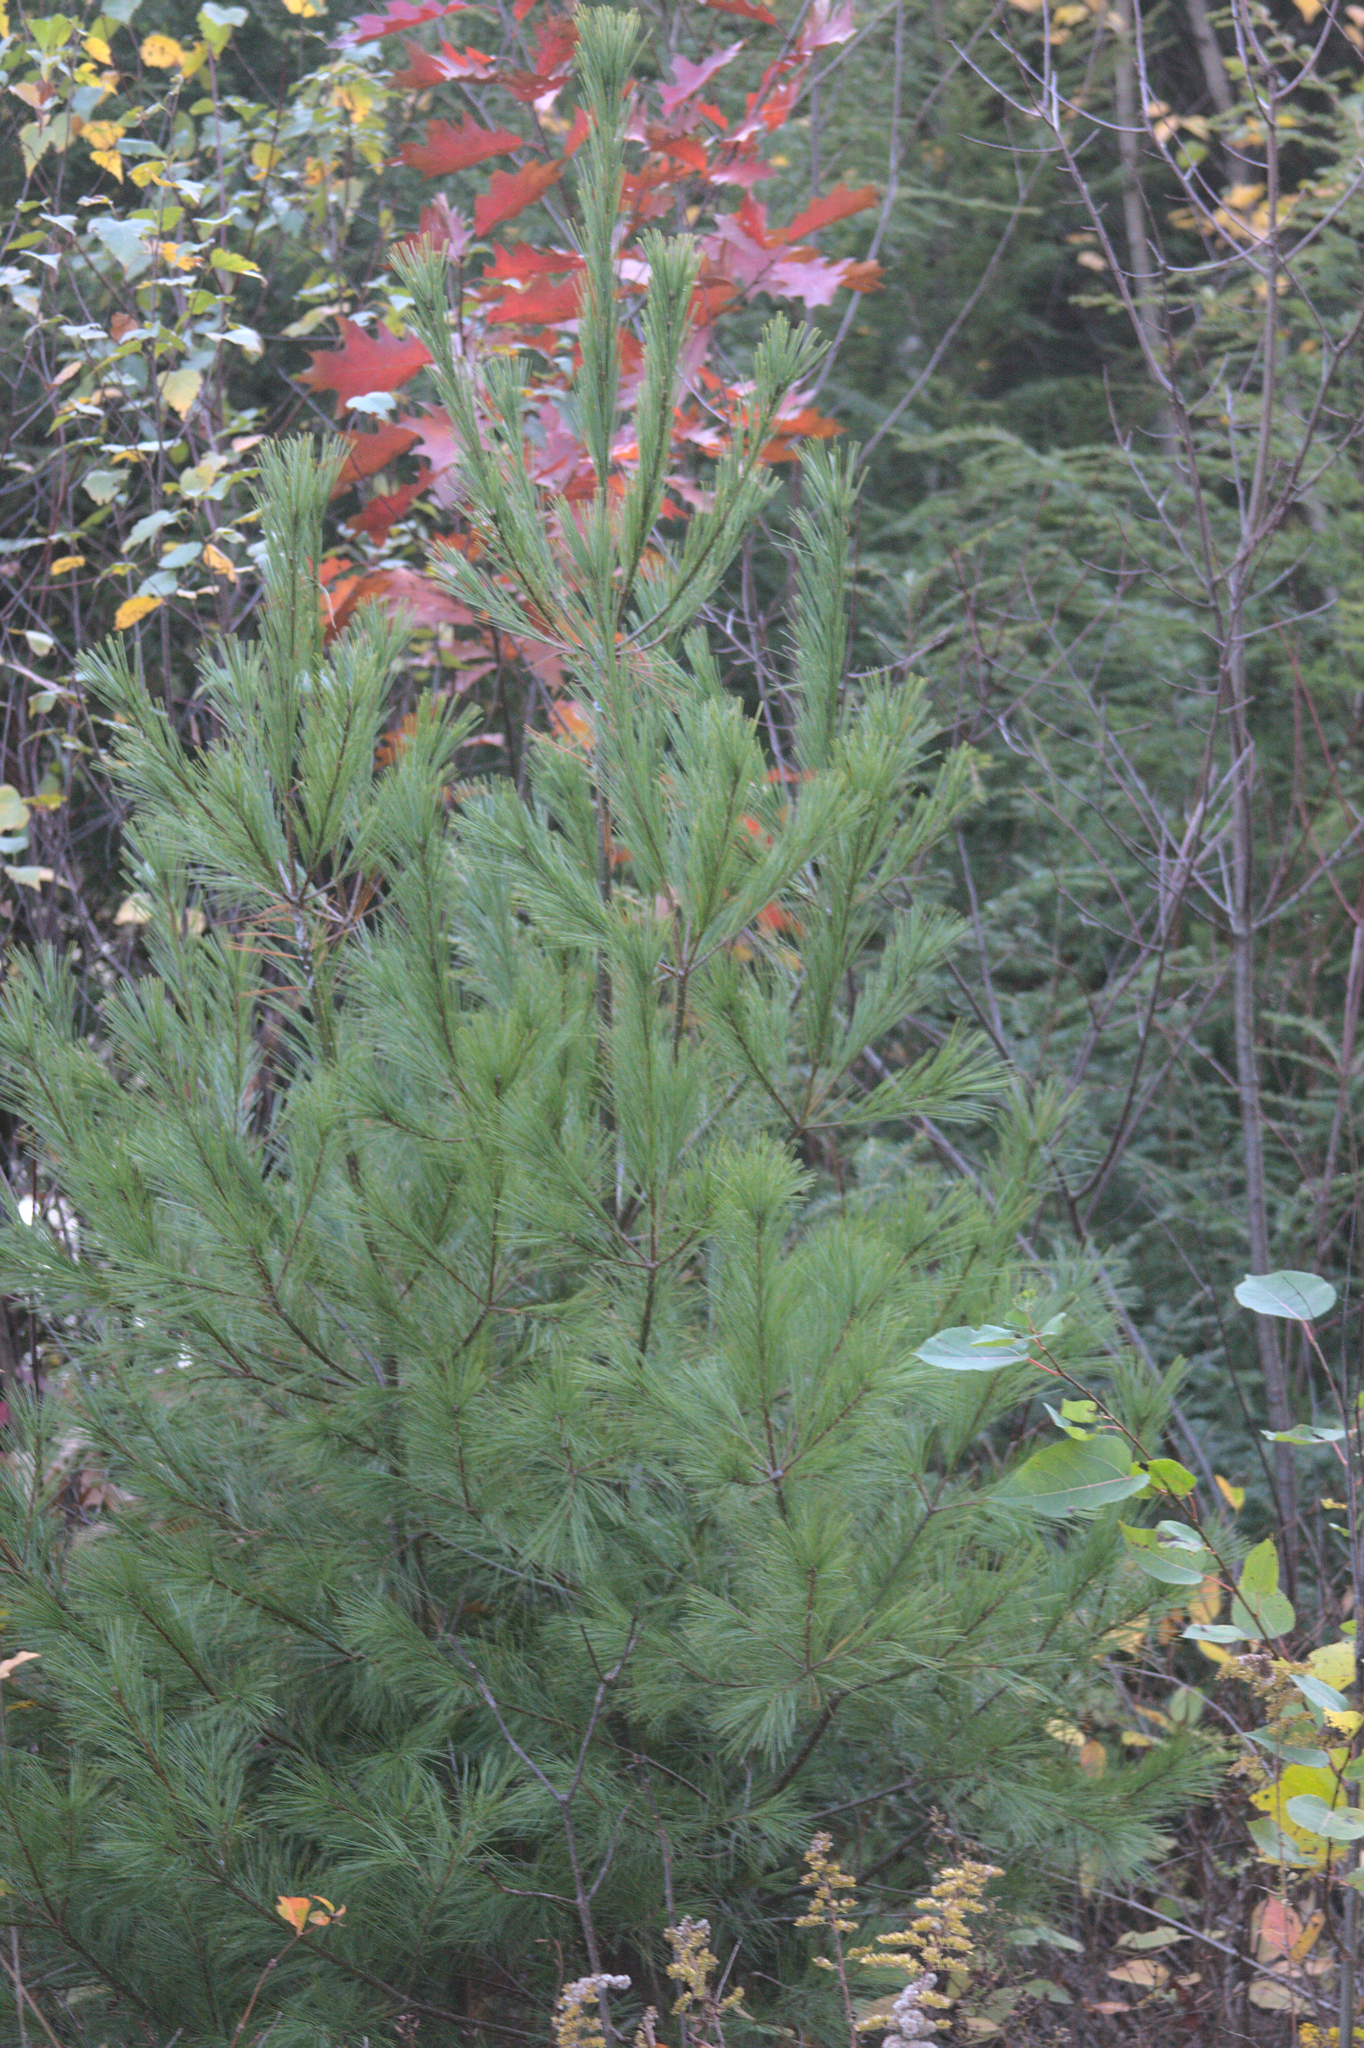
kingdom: Plantae
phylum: Tracheophyta
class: Pinopsida
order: Pinales
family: Pinaceae
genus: Pinus
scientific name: Pinus strobus
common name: Weymouth pine
